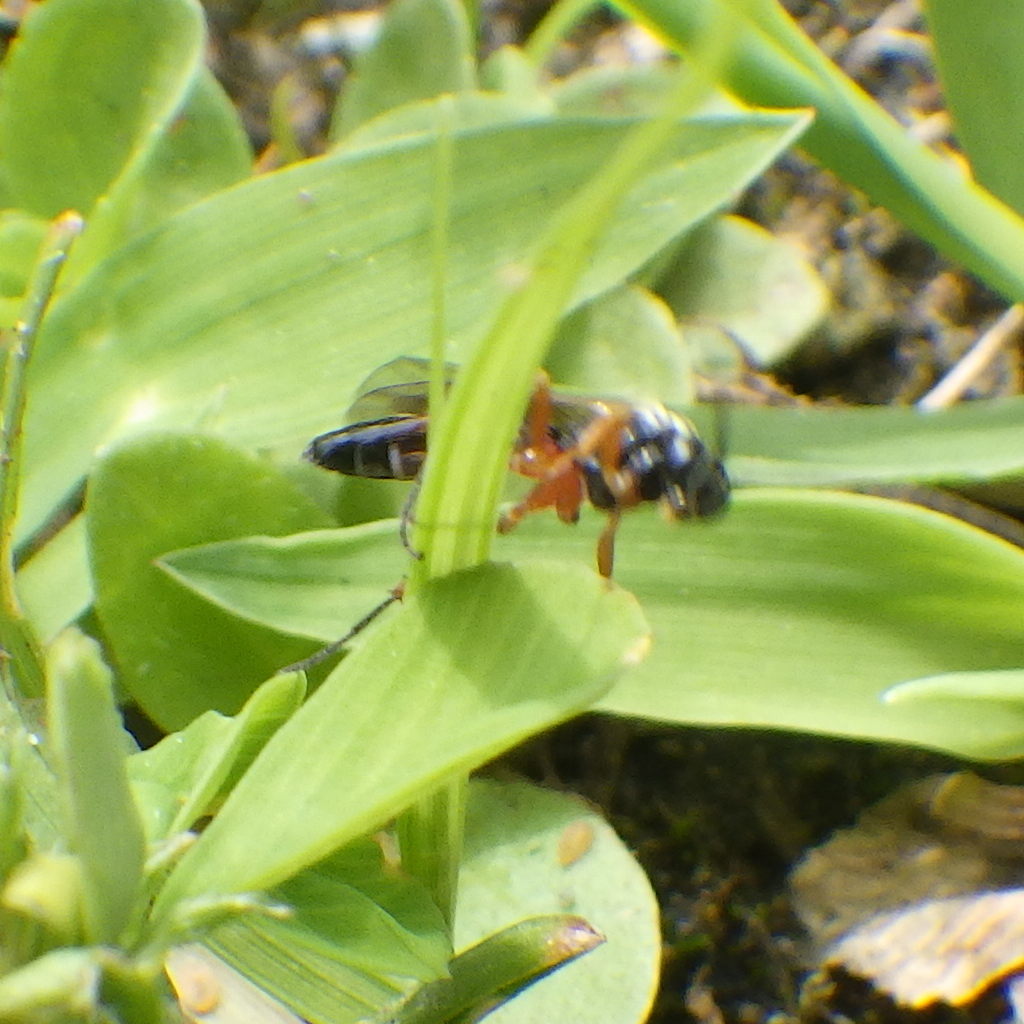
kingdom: Animalia
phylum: Arthropoda
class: Insecta
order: Hymenoptera
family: Ichneumonidae
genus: Diplazon
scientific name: Diplazon laetatorius
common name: Parasitoid wasp
